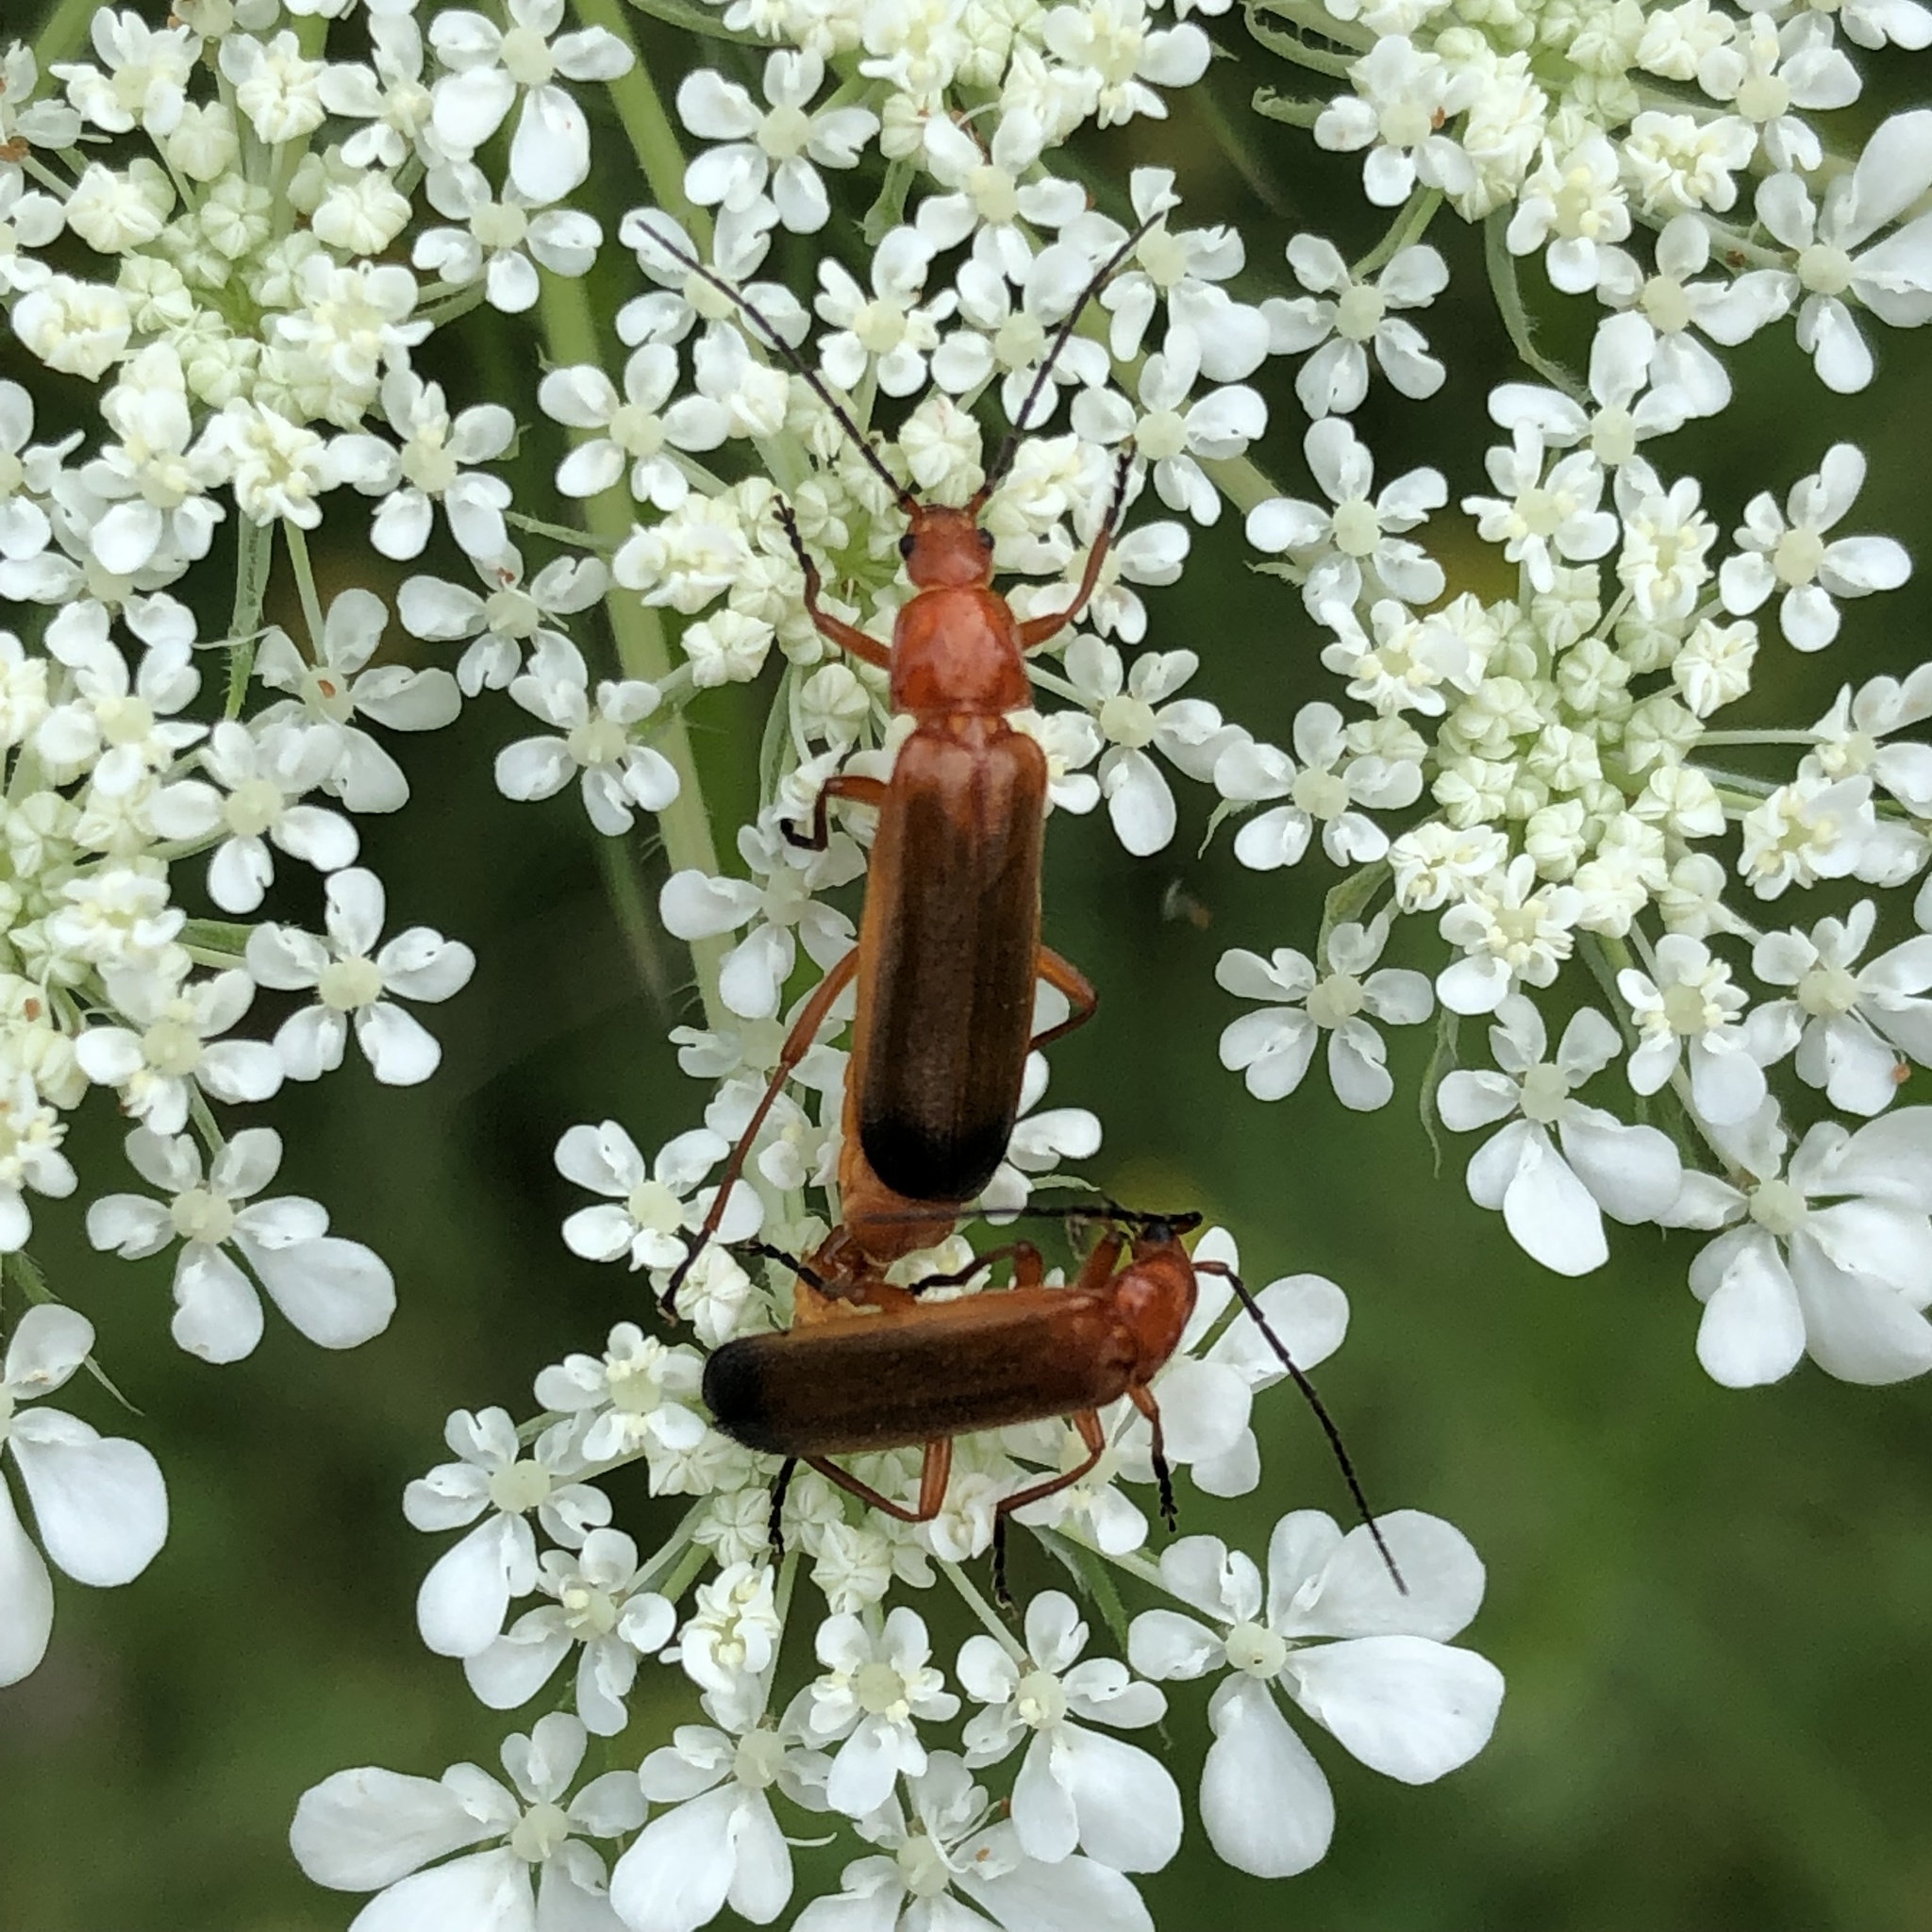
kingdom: Animalia
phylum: Arthropoda
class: Insecta
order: Coleoptera
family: Cantharidae
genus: Rhagonycha
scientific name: Rhagonycha fulva
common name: Common red soldier beetle
